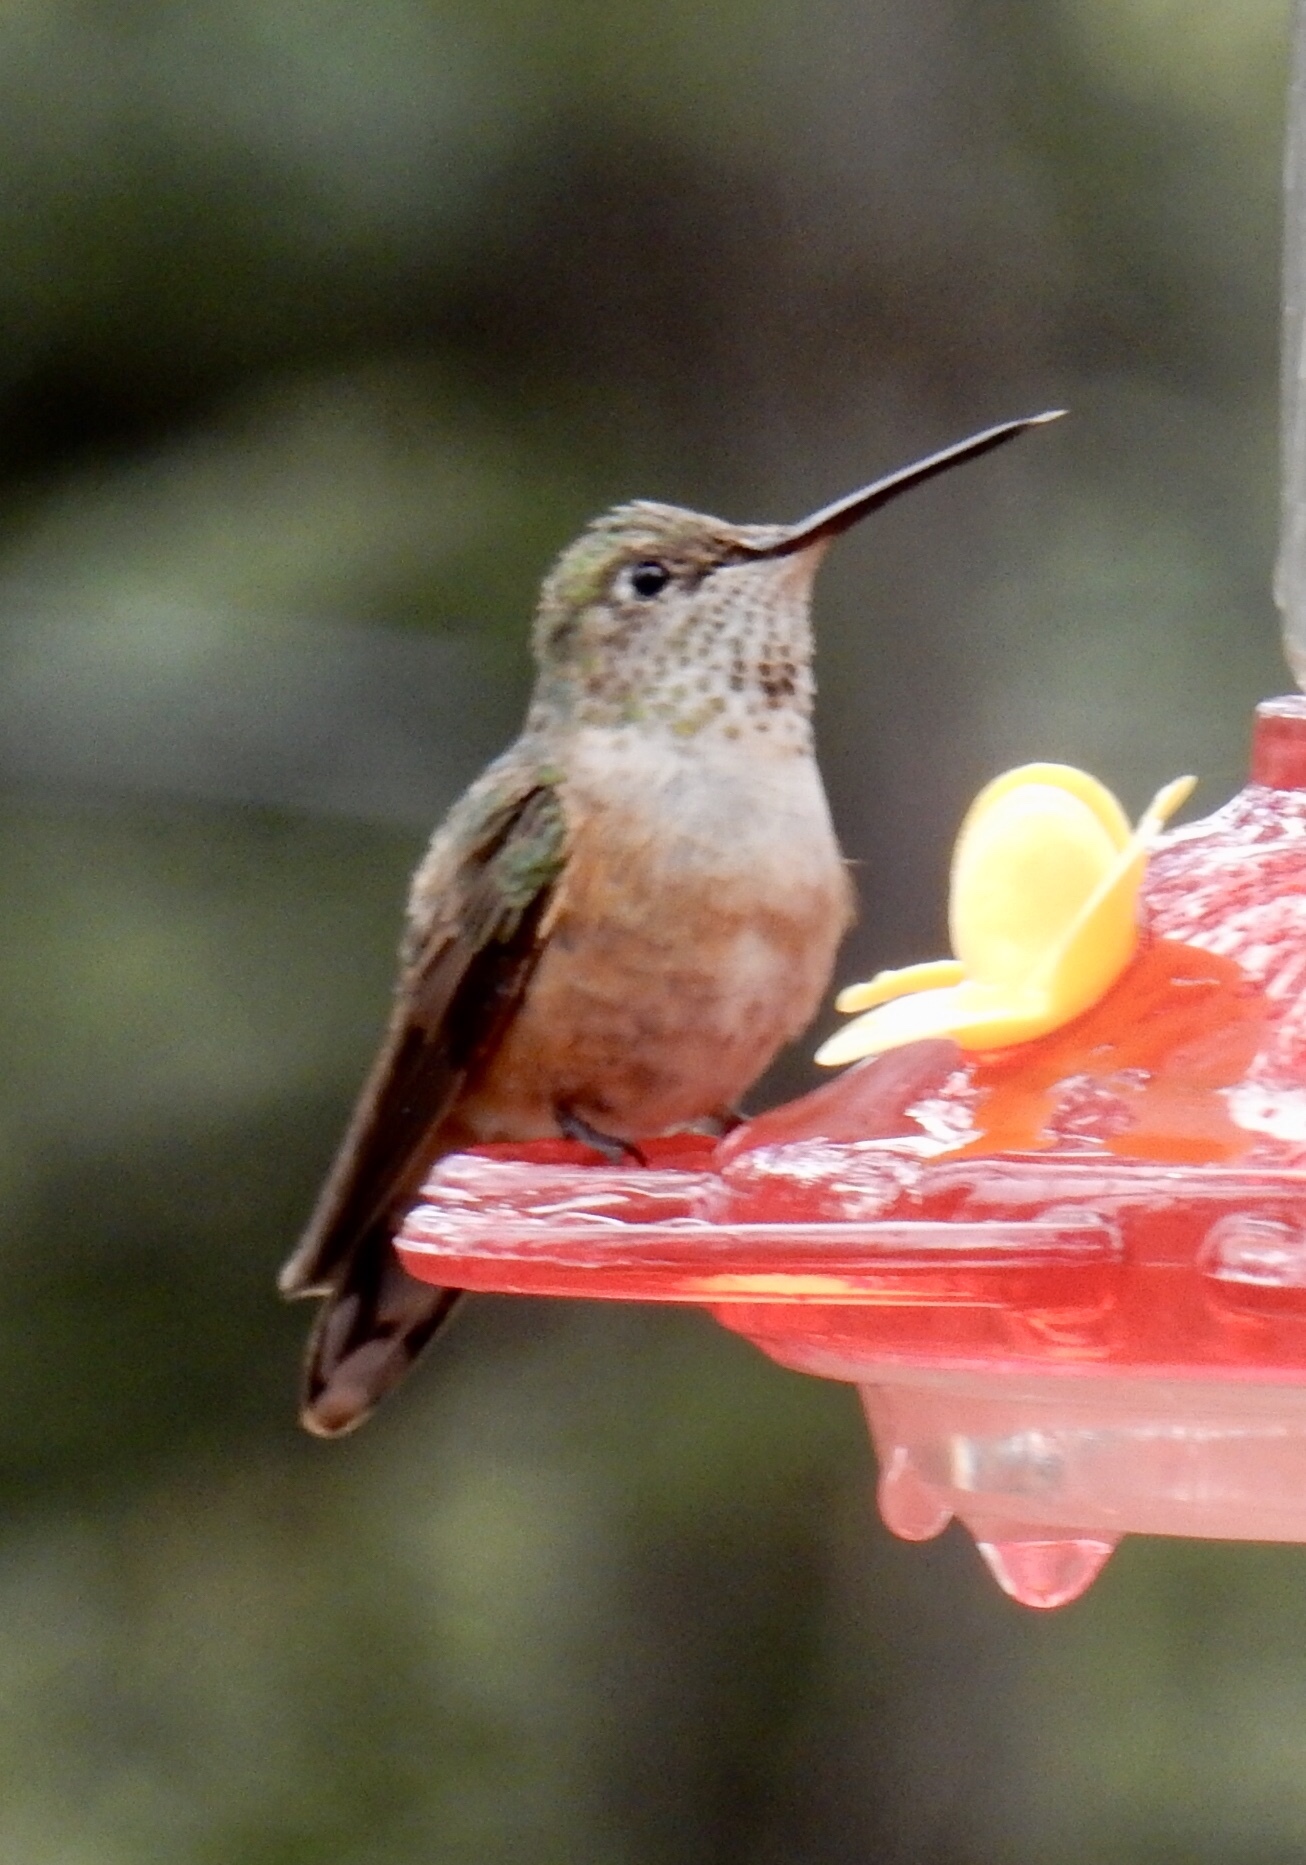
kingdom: Animalia
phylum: Chordata
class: Aves
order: Apodiformes
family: Trochilidae
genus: Selasphorus
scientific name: Selasphorus platycercus
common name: Broad-tailed hummingbird
